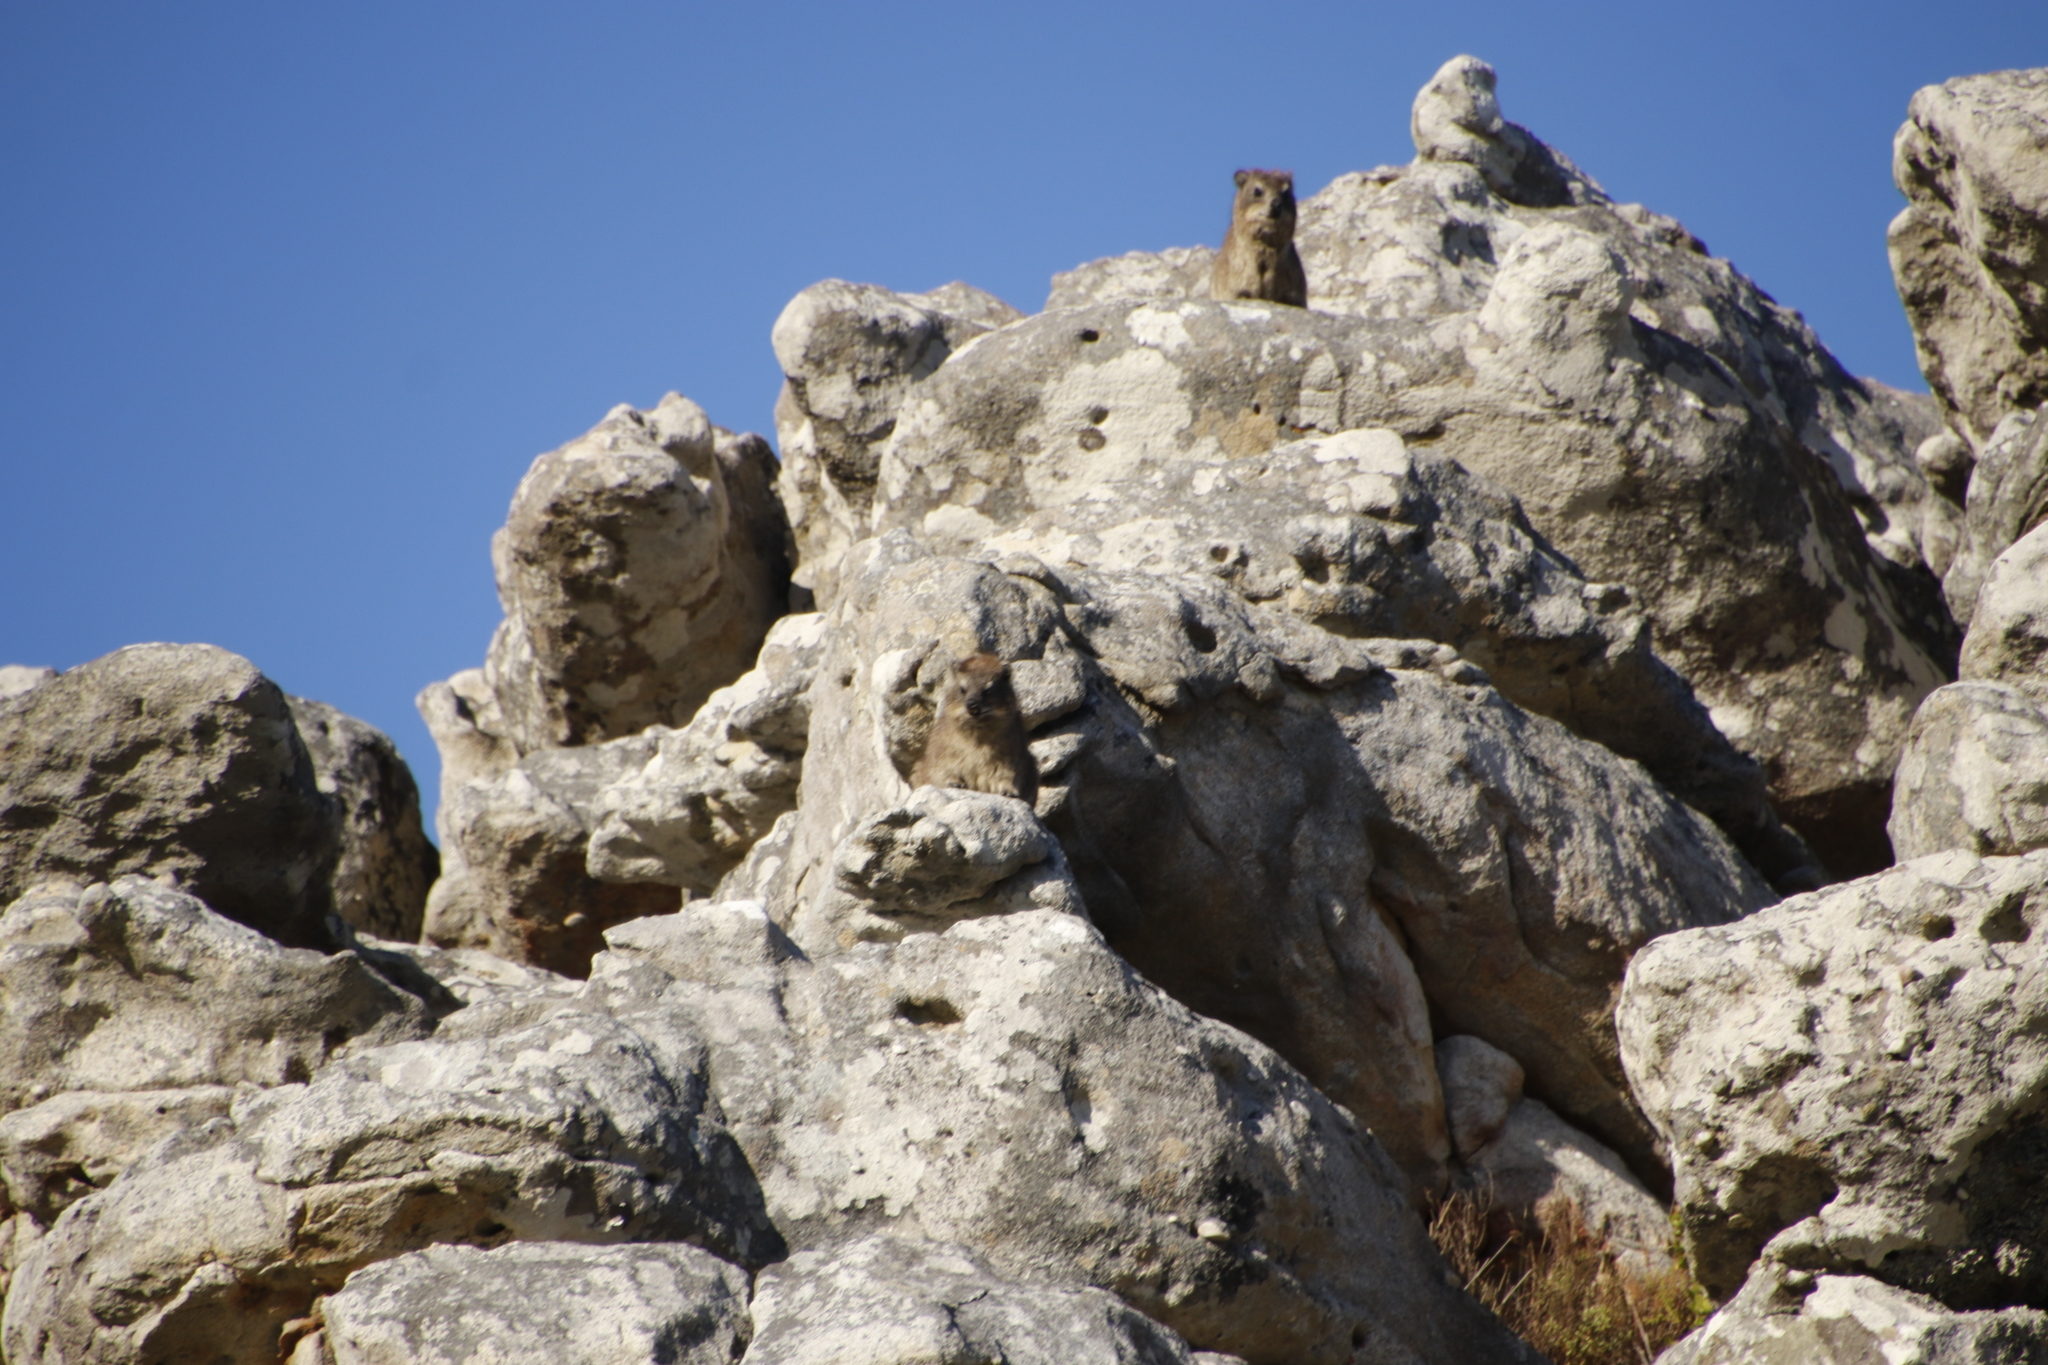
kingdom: Animalia
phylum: Chordata
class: Mammalia
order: Hyracoidea
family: Procaviidae
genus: Procavia
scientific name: Procavia capensis
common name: Rock hyrax
